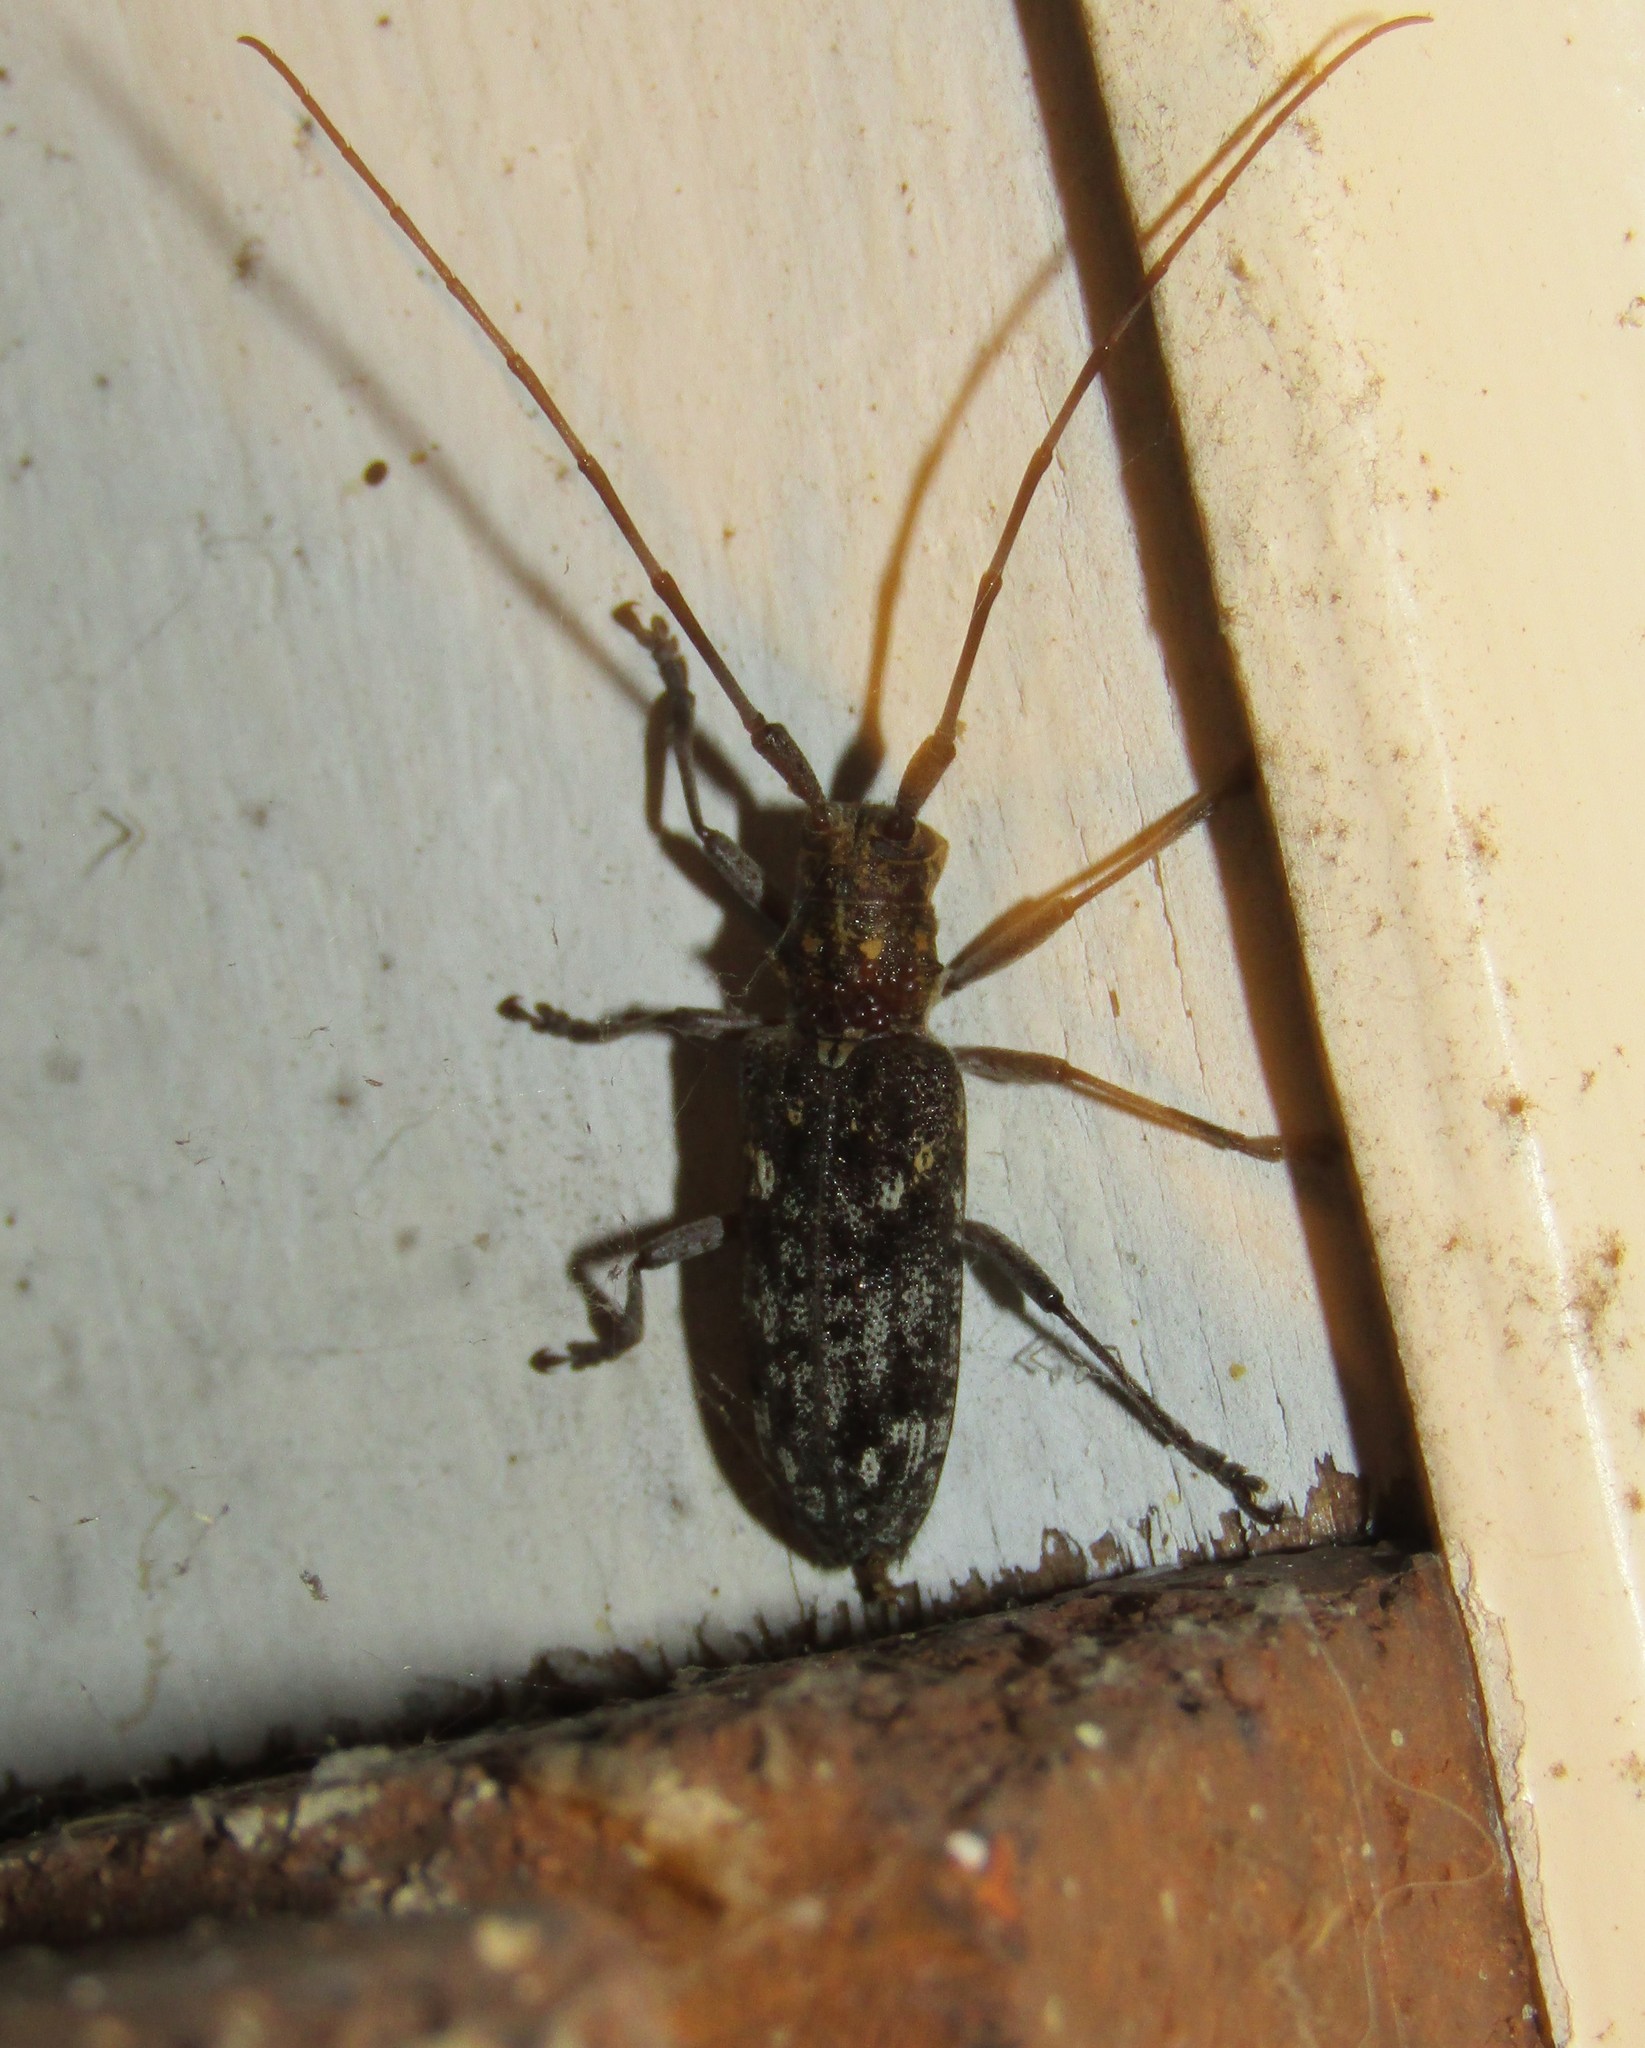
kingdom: Animalia
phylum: Arthropoda
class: Insecta
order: Coleoptera
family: Cerambycidae
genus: Monochamus
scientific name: Monochamus carolinensis
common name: Carolina pine sawyer
